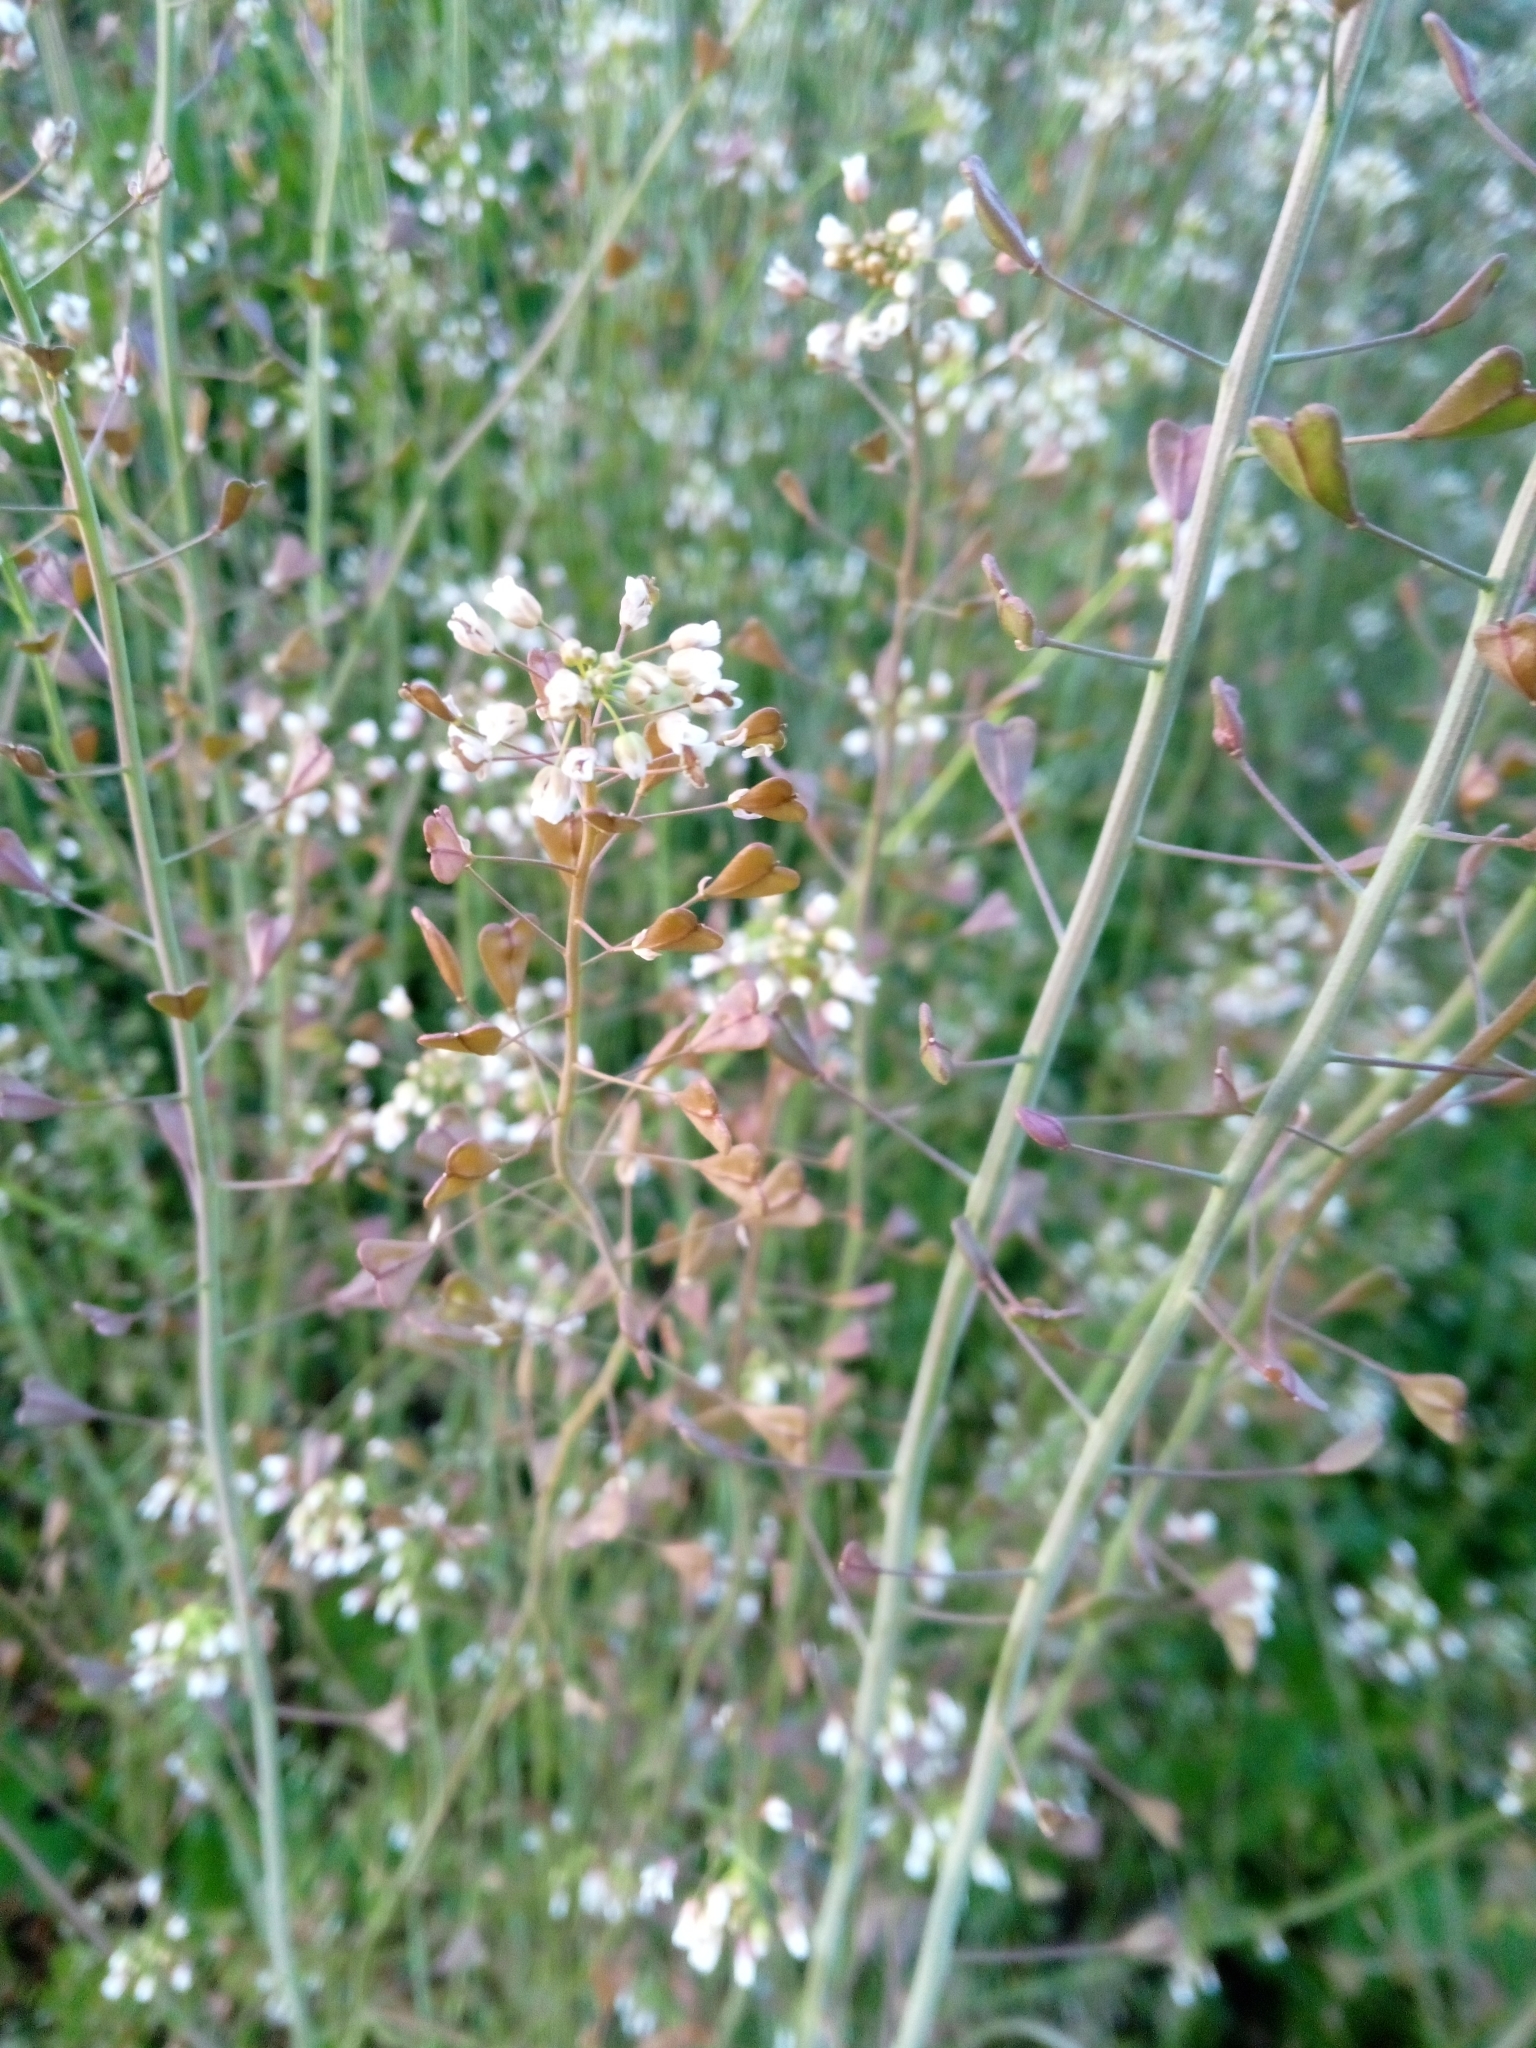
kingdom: Plantae
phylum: Tracheophyta
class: Magnoliopsida
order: Brassicales
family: Brassicaceae
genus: Capsella
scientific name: Capsella bursa-pastoris
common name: Shepherd's purse
